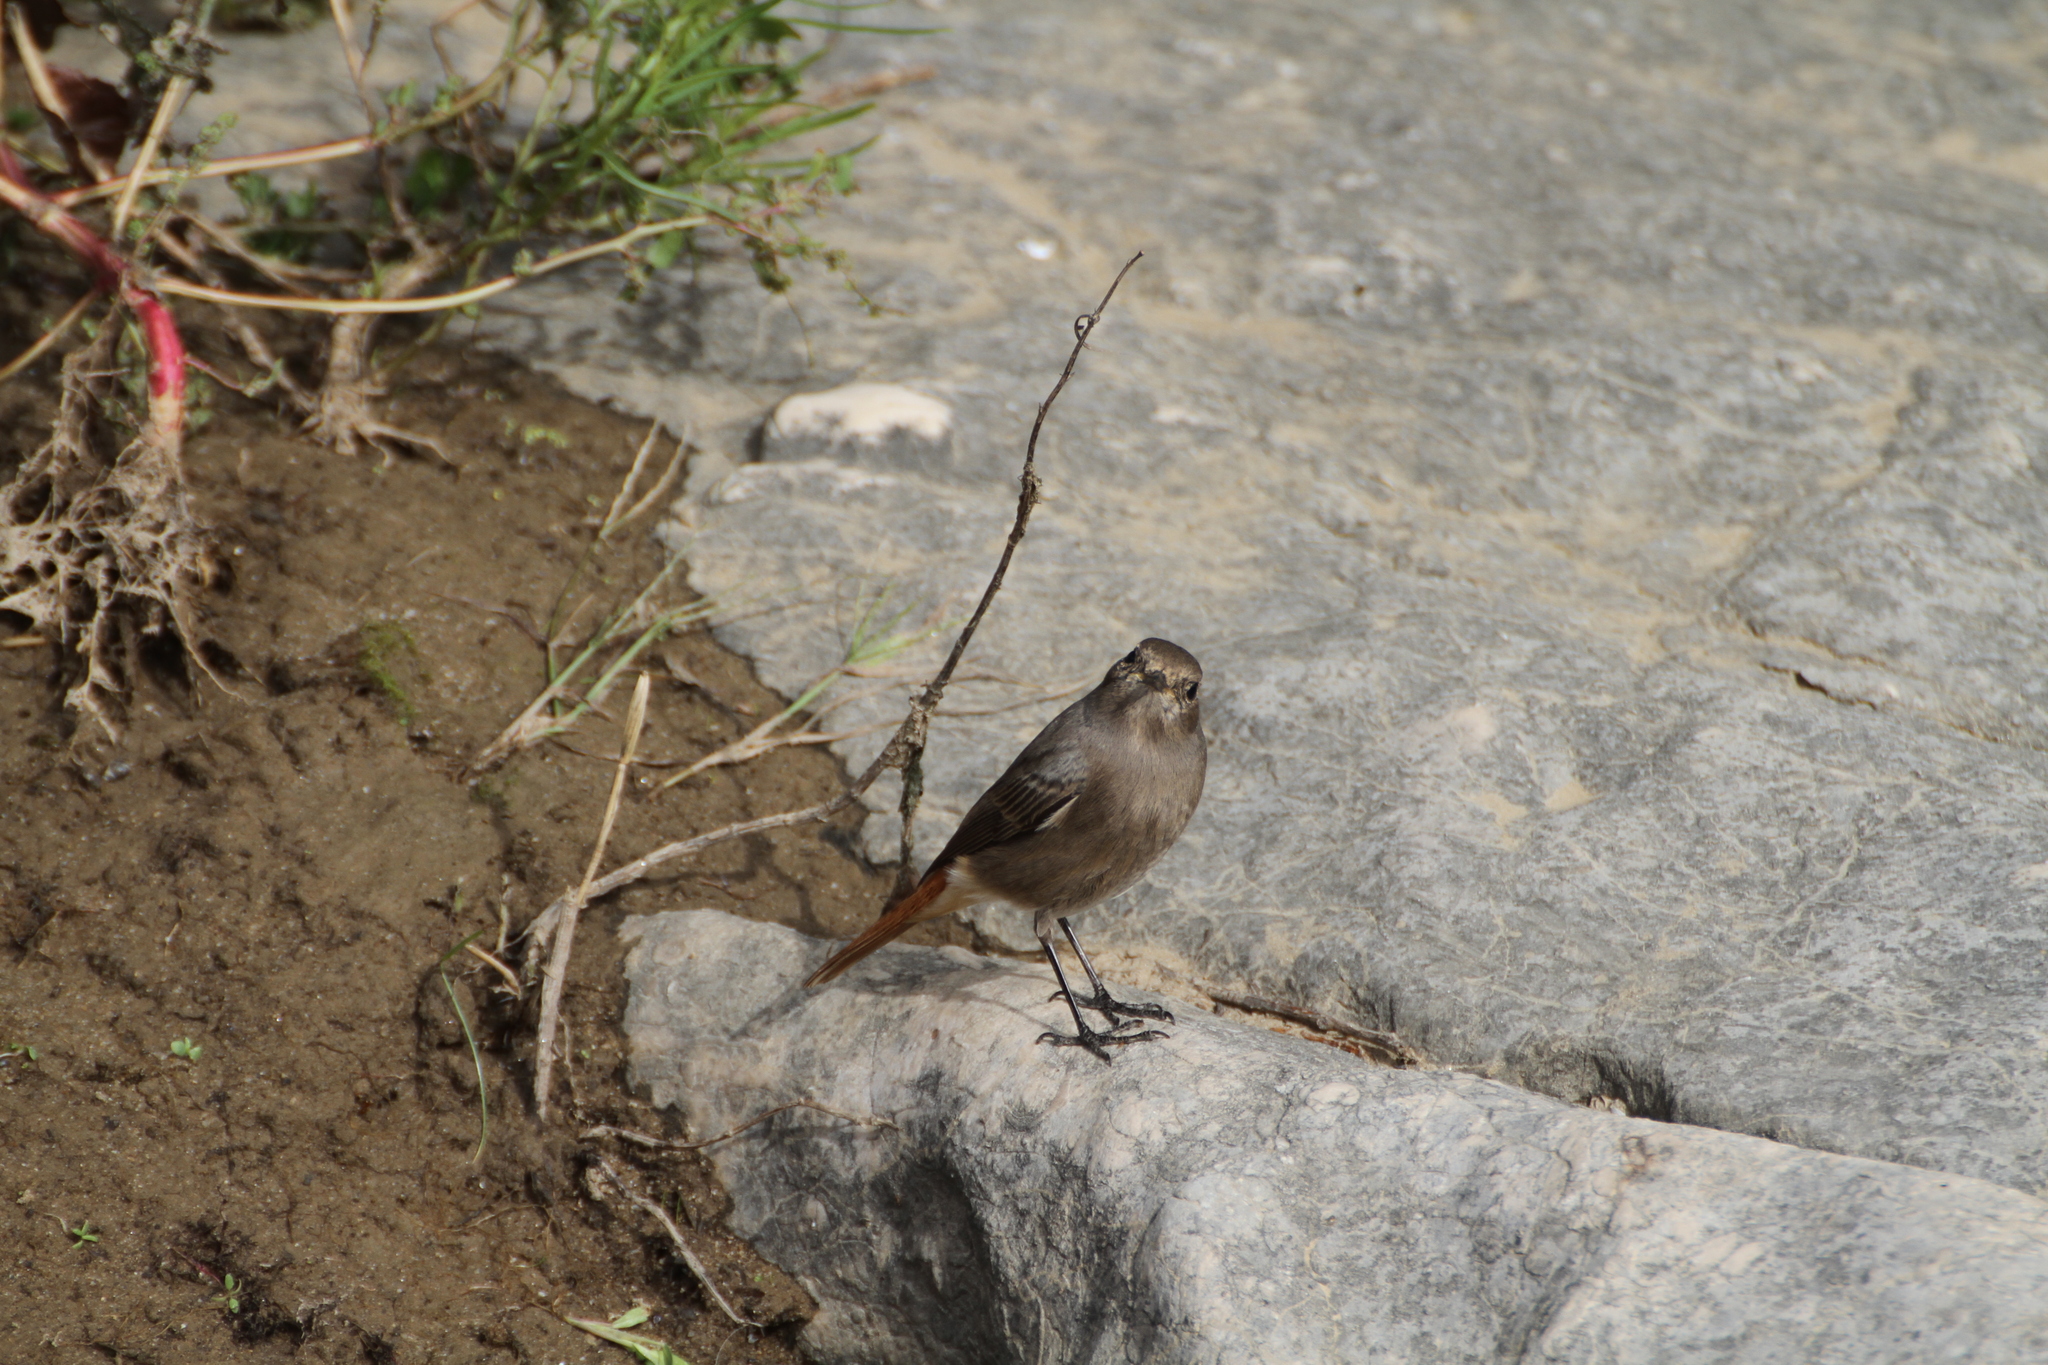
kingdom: Animalia
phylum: Chordata
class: Aves
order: Passeriformes
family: Muscicapidae
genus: Phoenicurus
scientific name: Phoenicurus ochruros
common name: Black redstart
